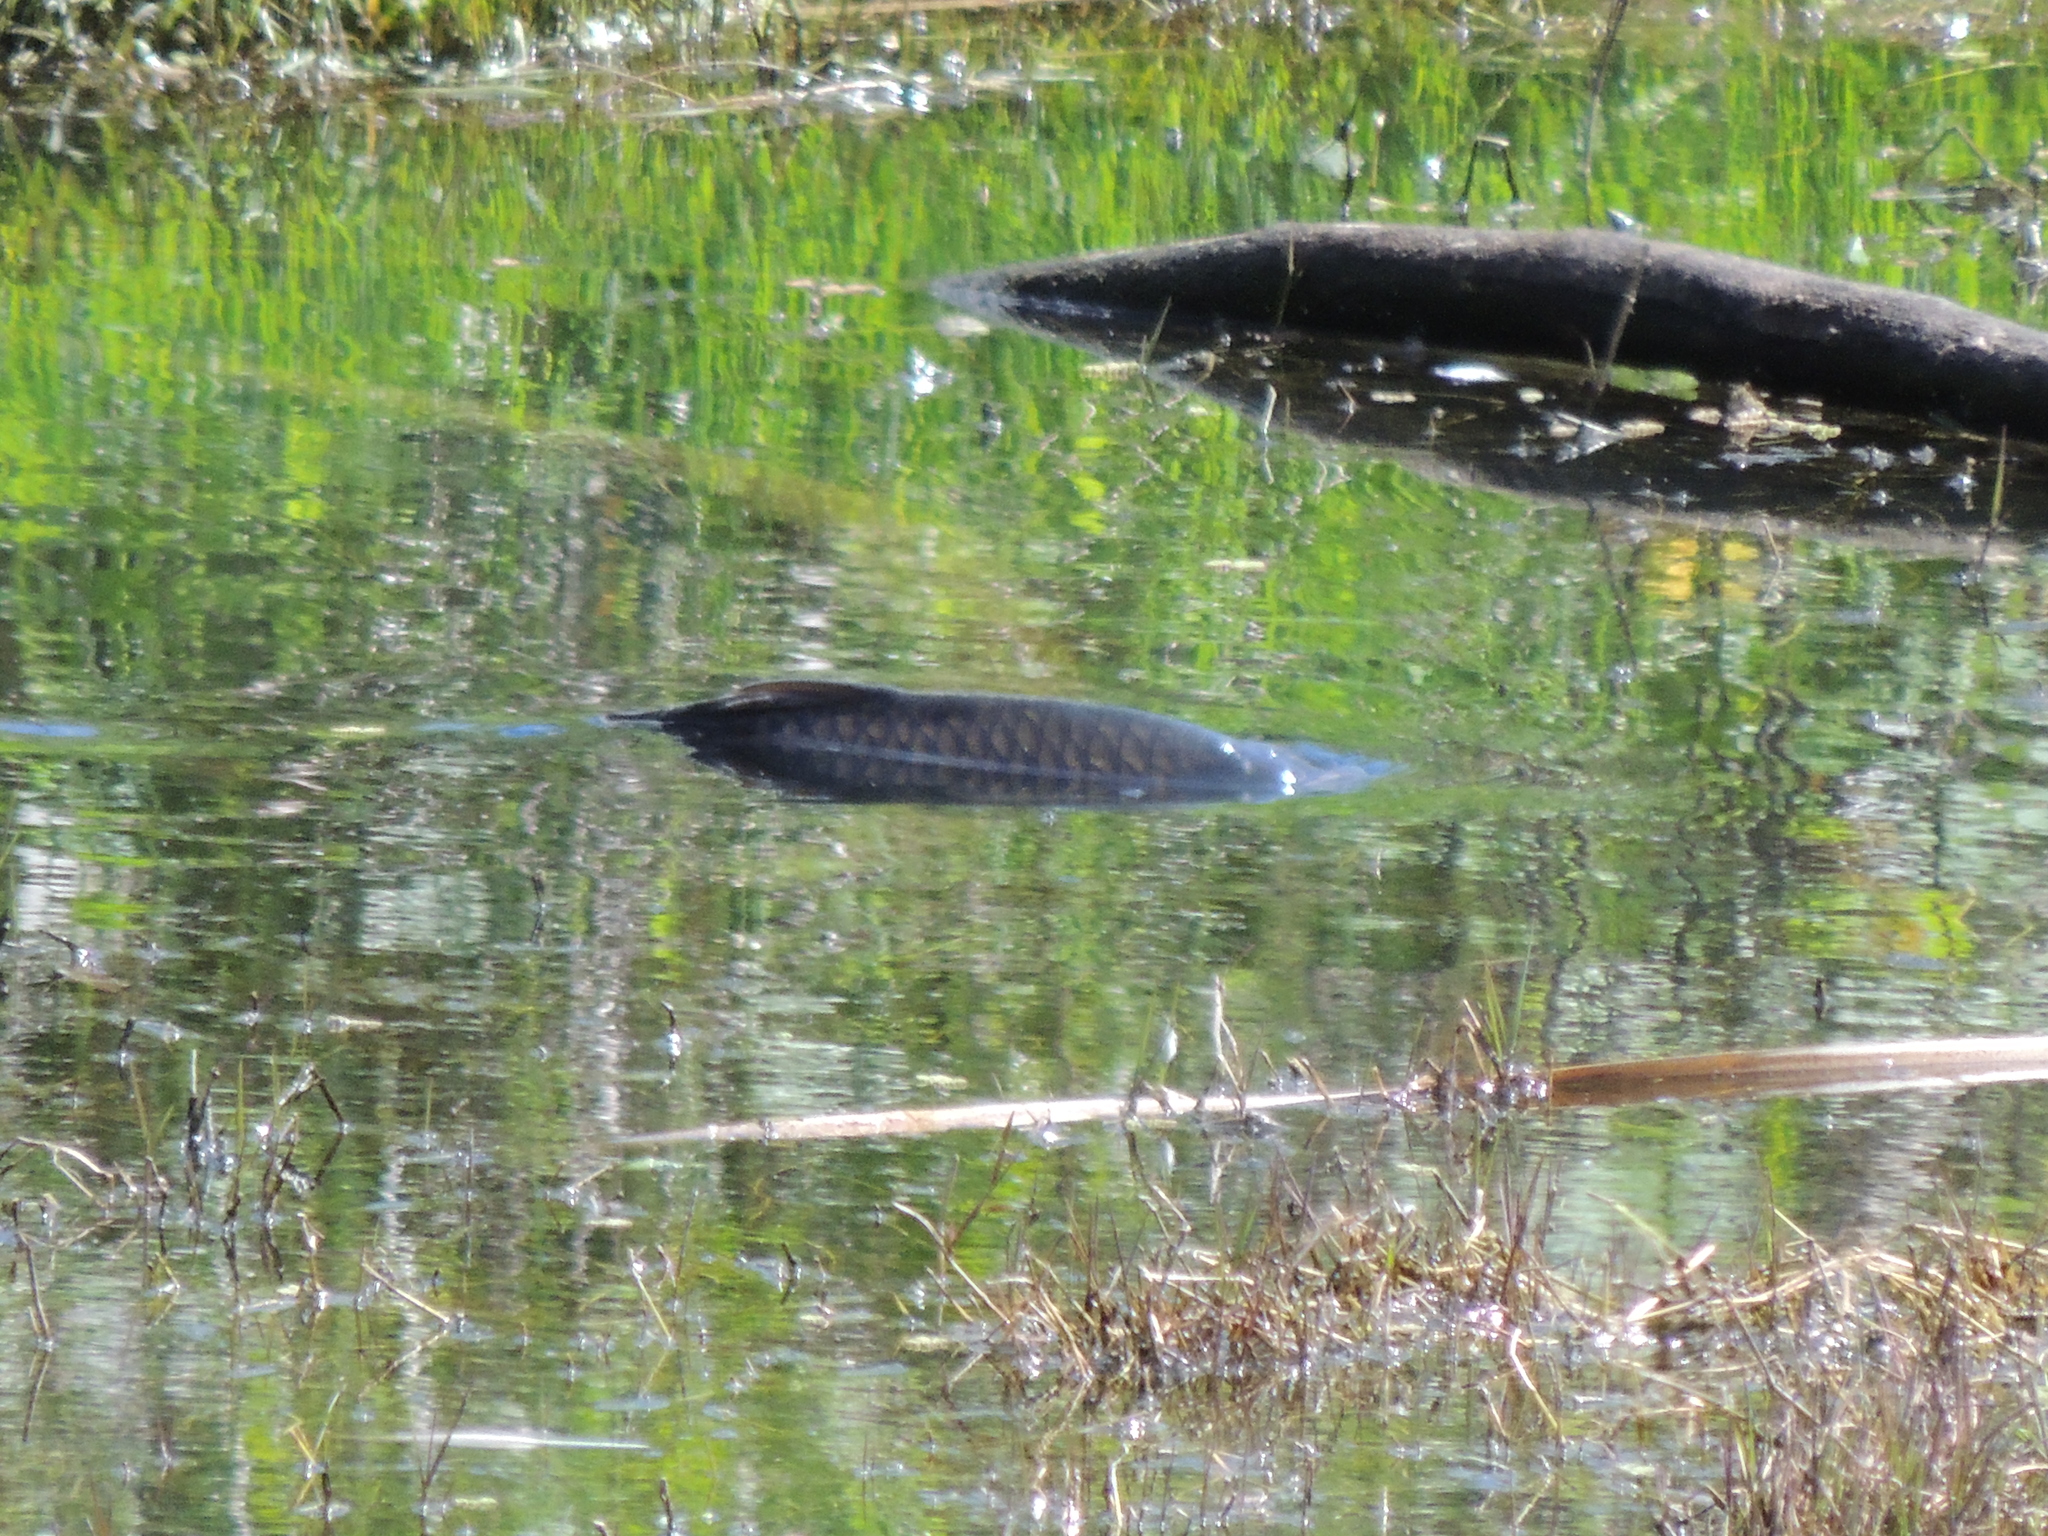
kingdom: Animalia
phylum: Chordata
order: Cypriniformes
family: Cyprinidae
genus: Cyprinus
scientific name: Cyprinus carpio
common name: Common carp
